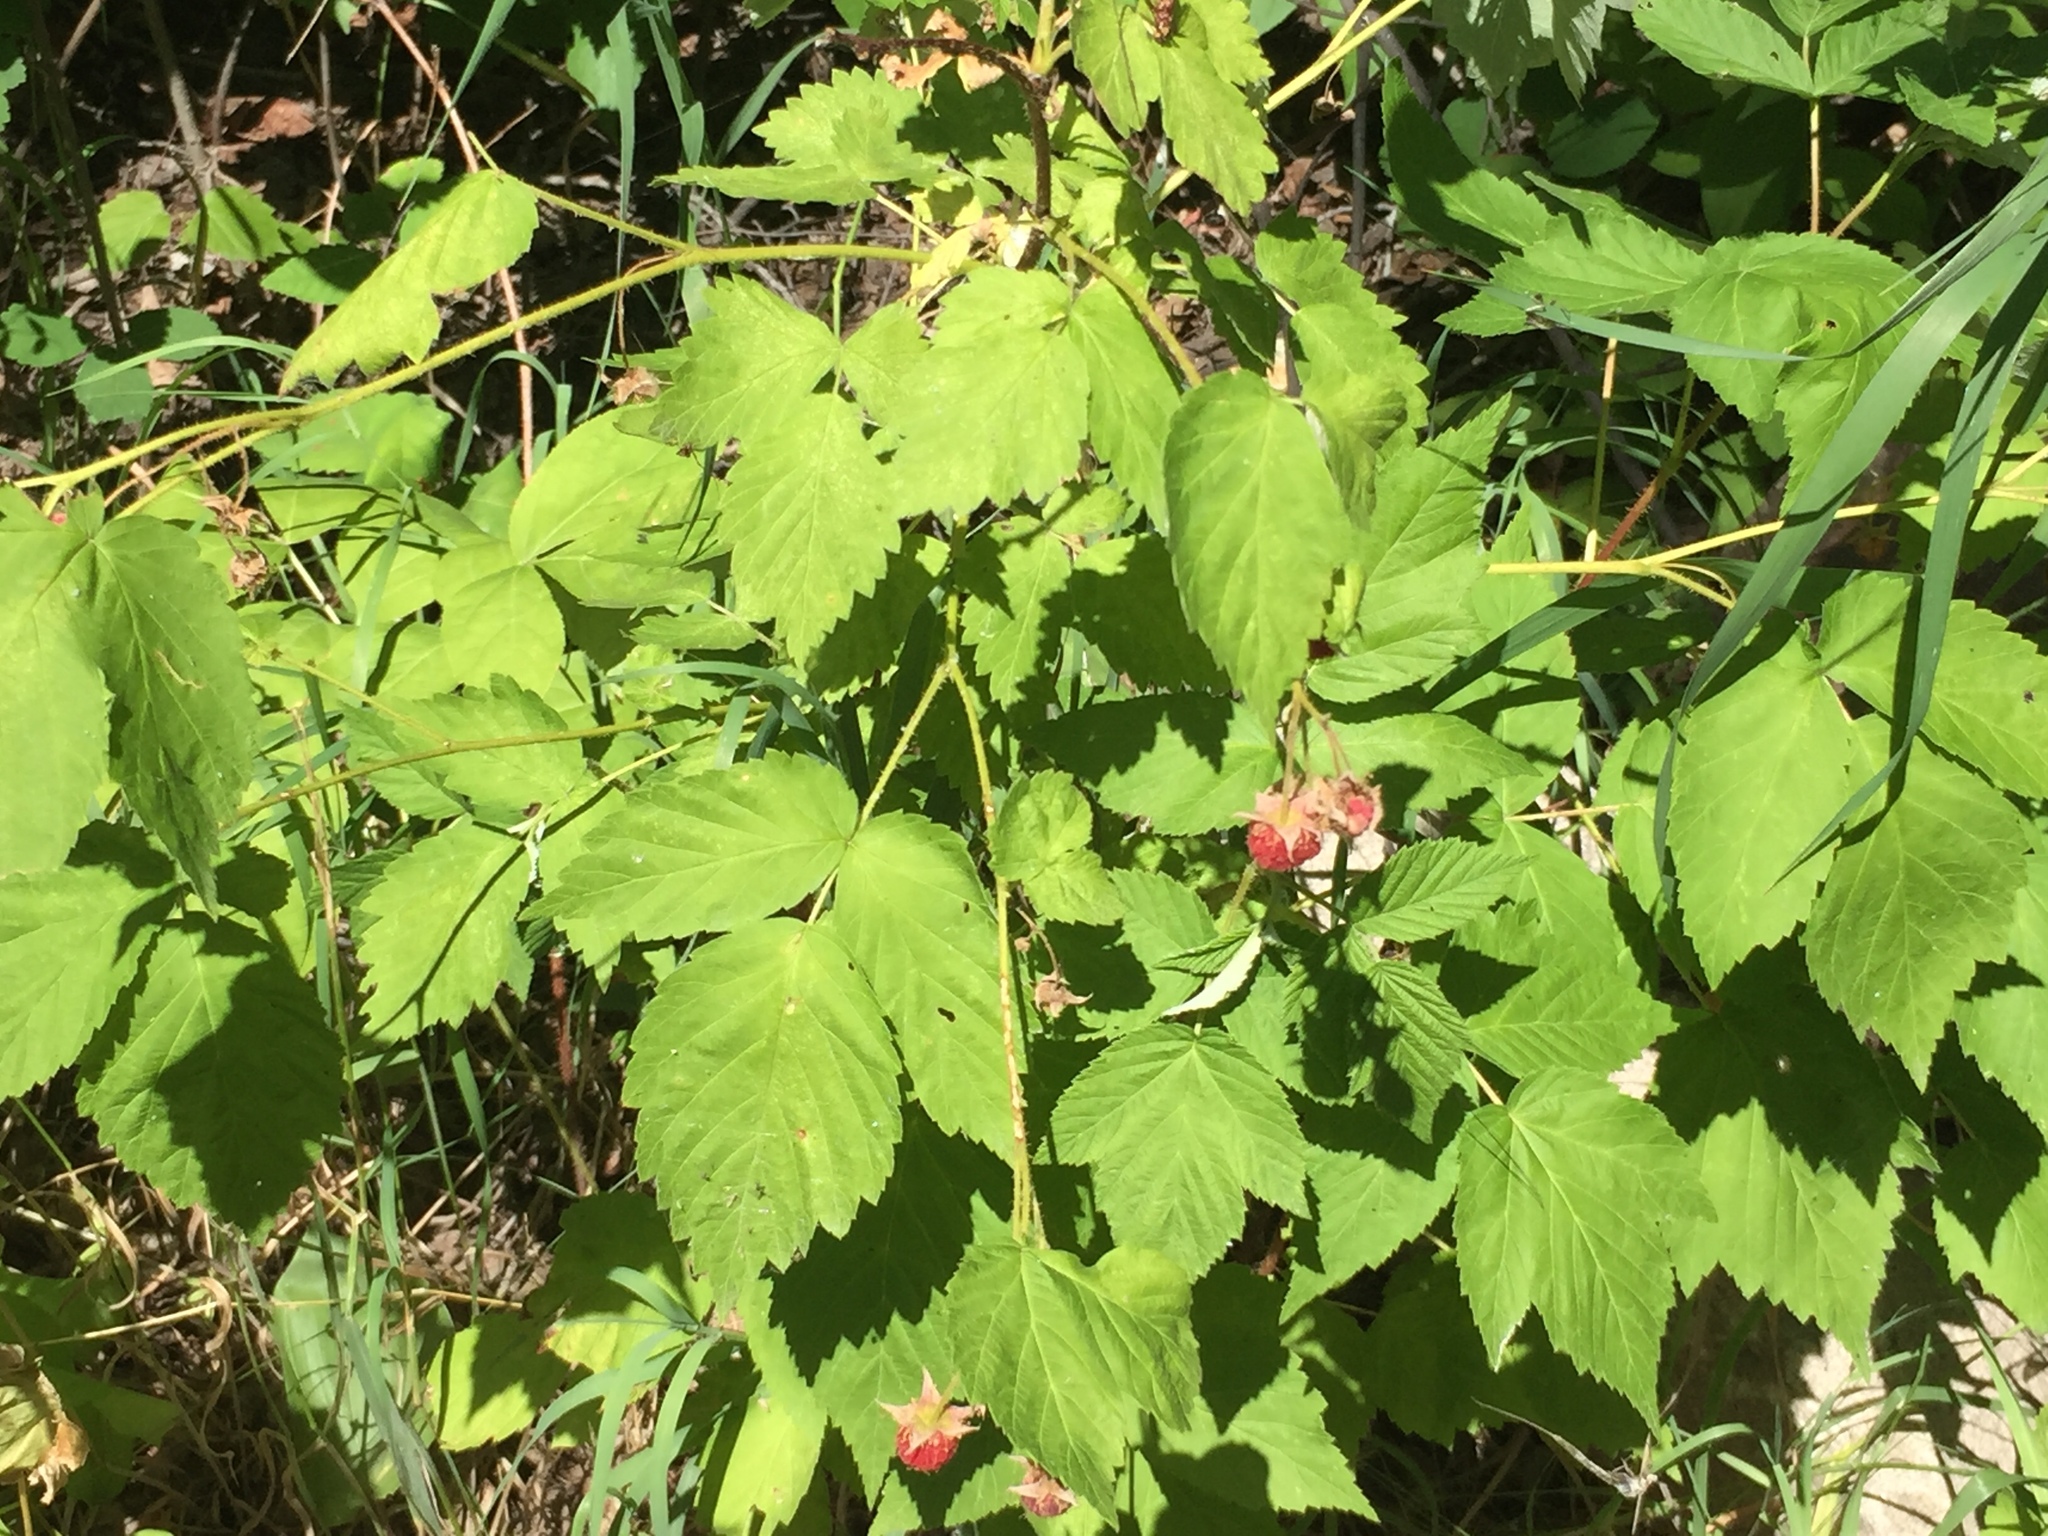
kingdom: Plantae
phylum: Tracheophyta
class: Magnoliopsida
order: Rosales
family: Rosaceae
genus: Rubus
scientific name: Rubus idaeus
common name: Raspberry
